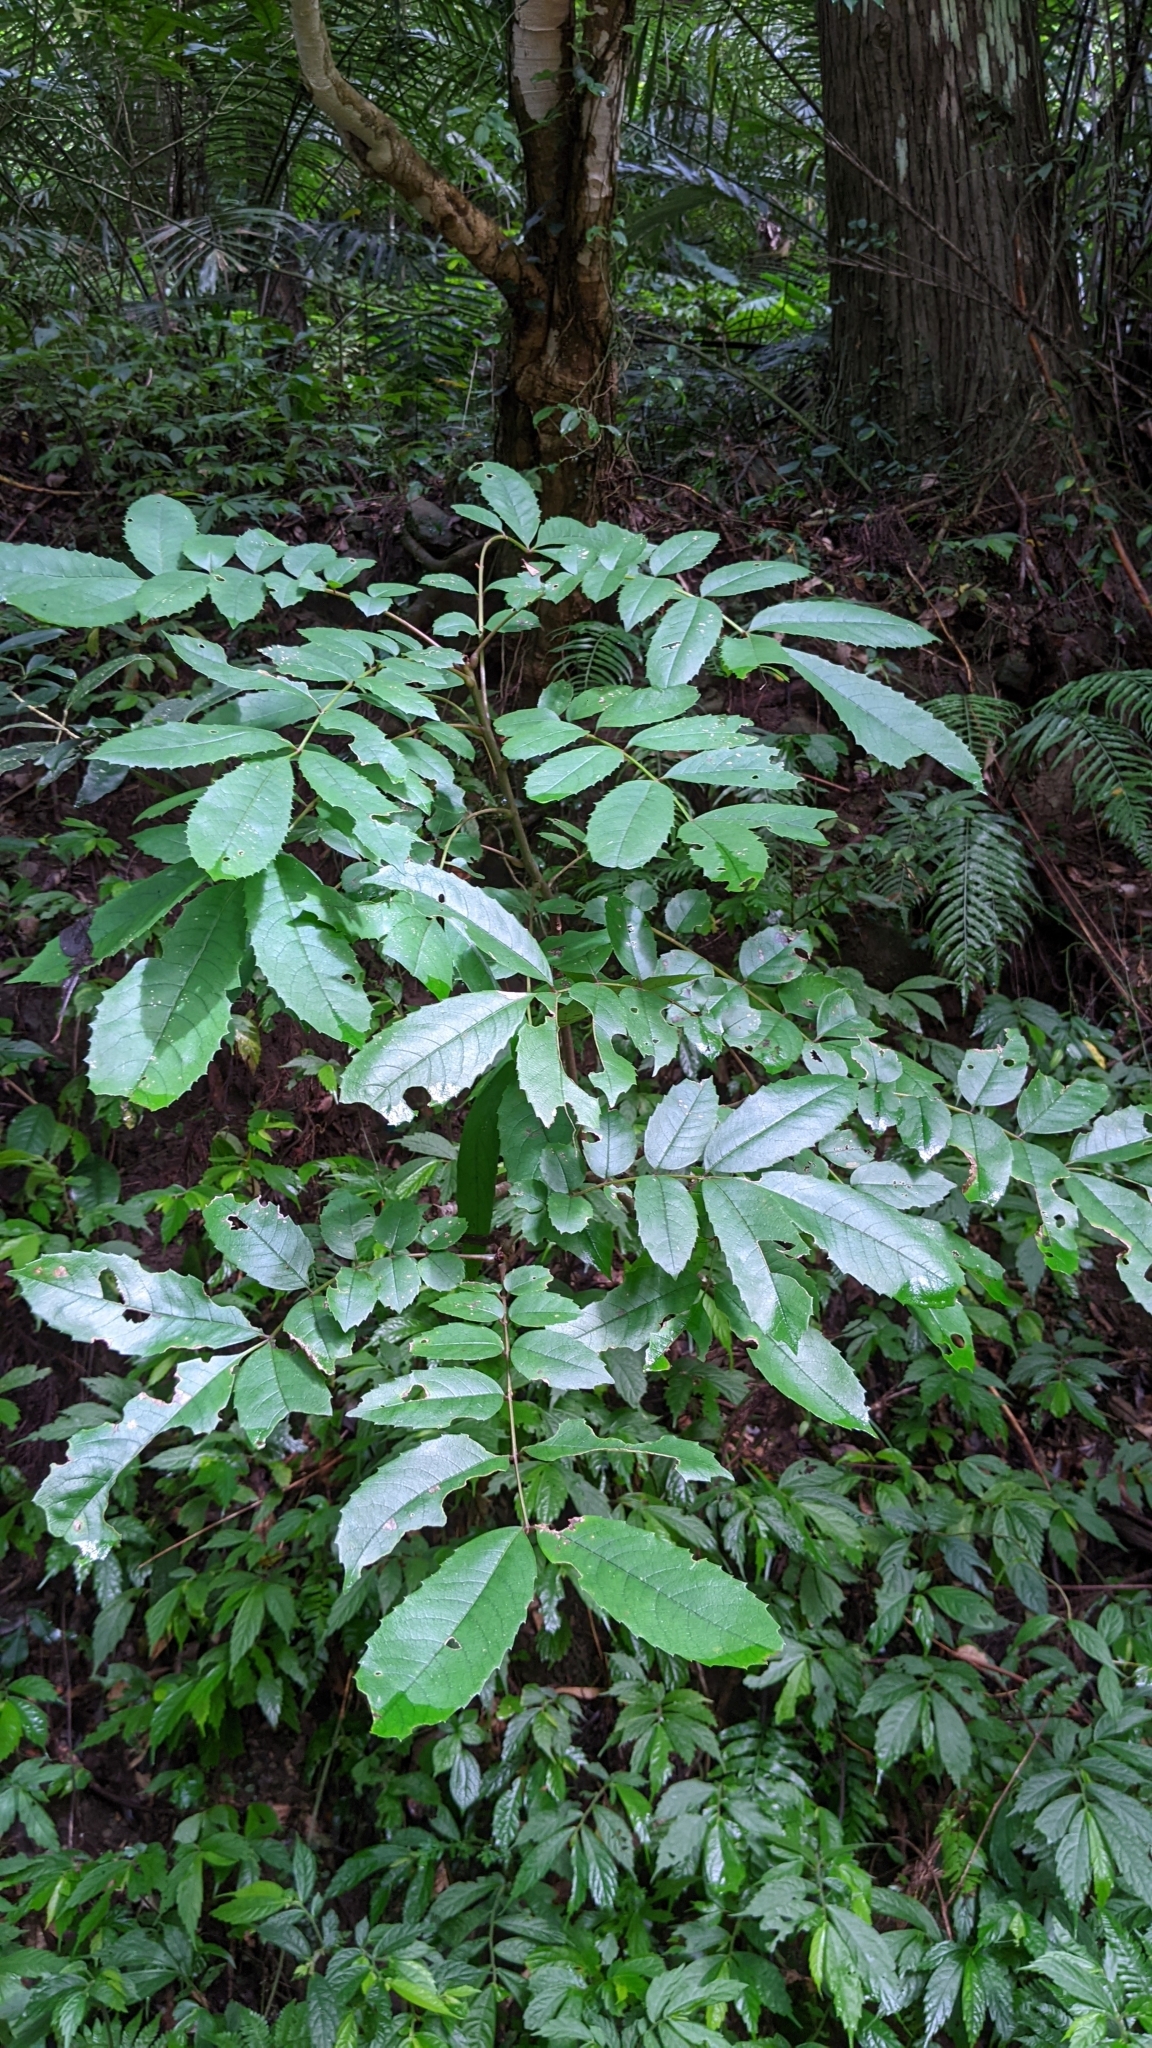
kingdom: Plantae
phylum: Tracheophyta
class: Magnoliopsida
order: Proteales
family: Sabiaceae
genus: Meliosma
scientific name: Meliosma rhoifolia
